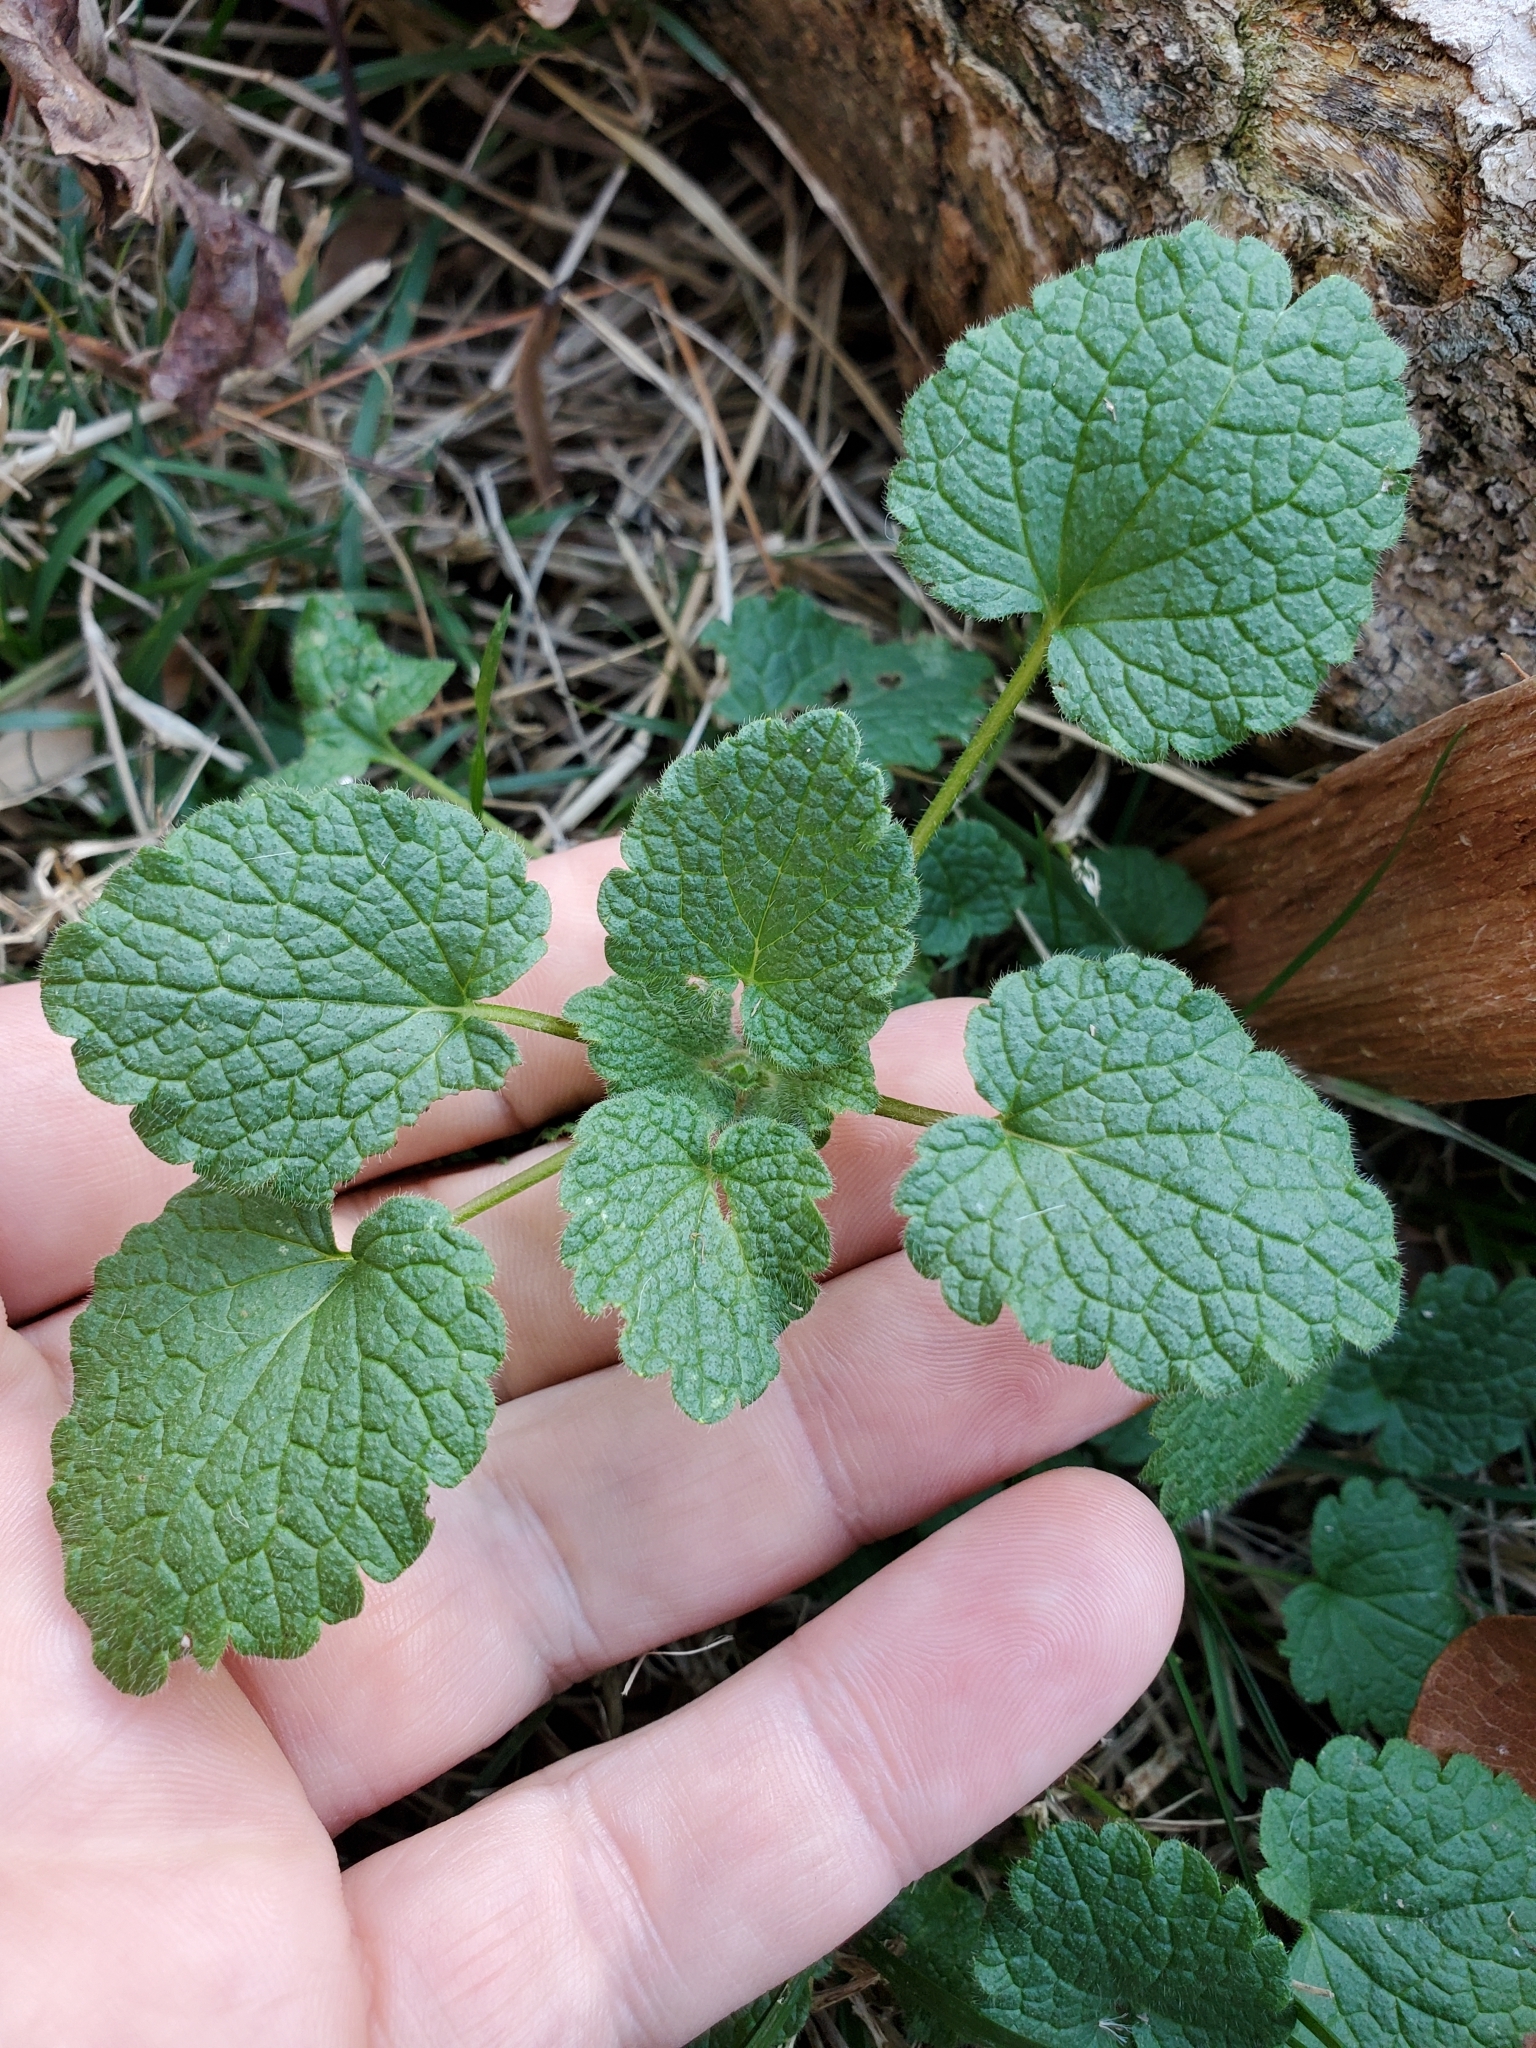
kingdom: Plantae
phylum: Tracheophyta
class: Magnoliopsida
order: Lamiales
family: Lamiaceae
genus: Lamium
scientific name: Lamium purpureum
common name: Red dead-nettle
